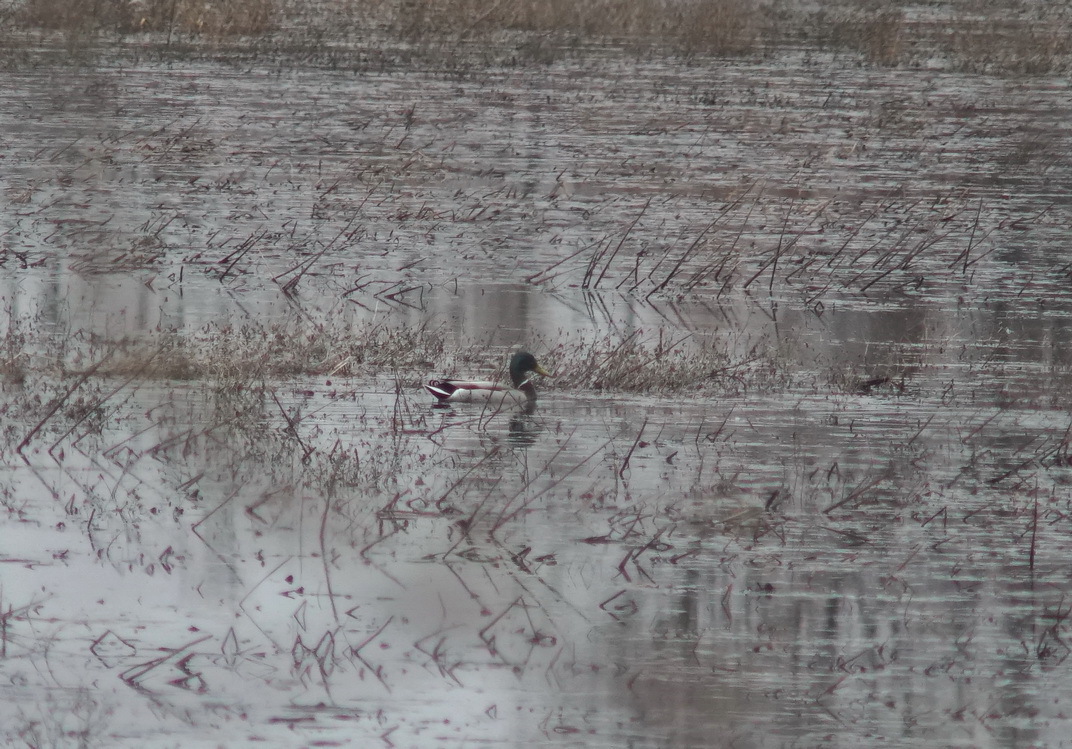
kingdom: Animalia
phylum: Chordata
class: Aves
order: Anseriformes
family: Anatidae
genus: Anas
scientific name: Anas platyrhynchos
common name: Mallard
